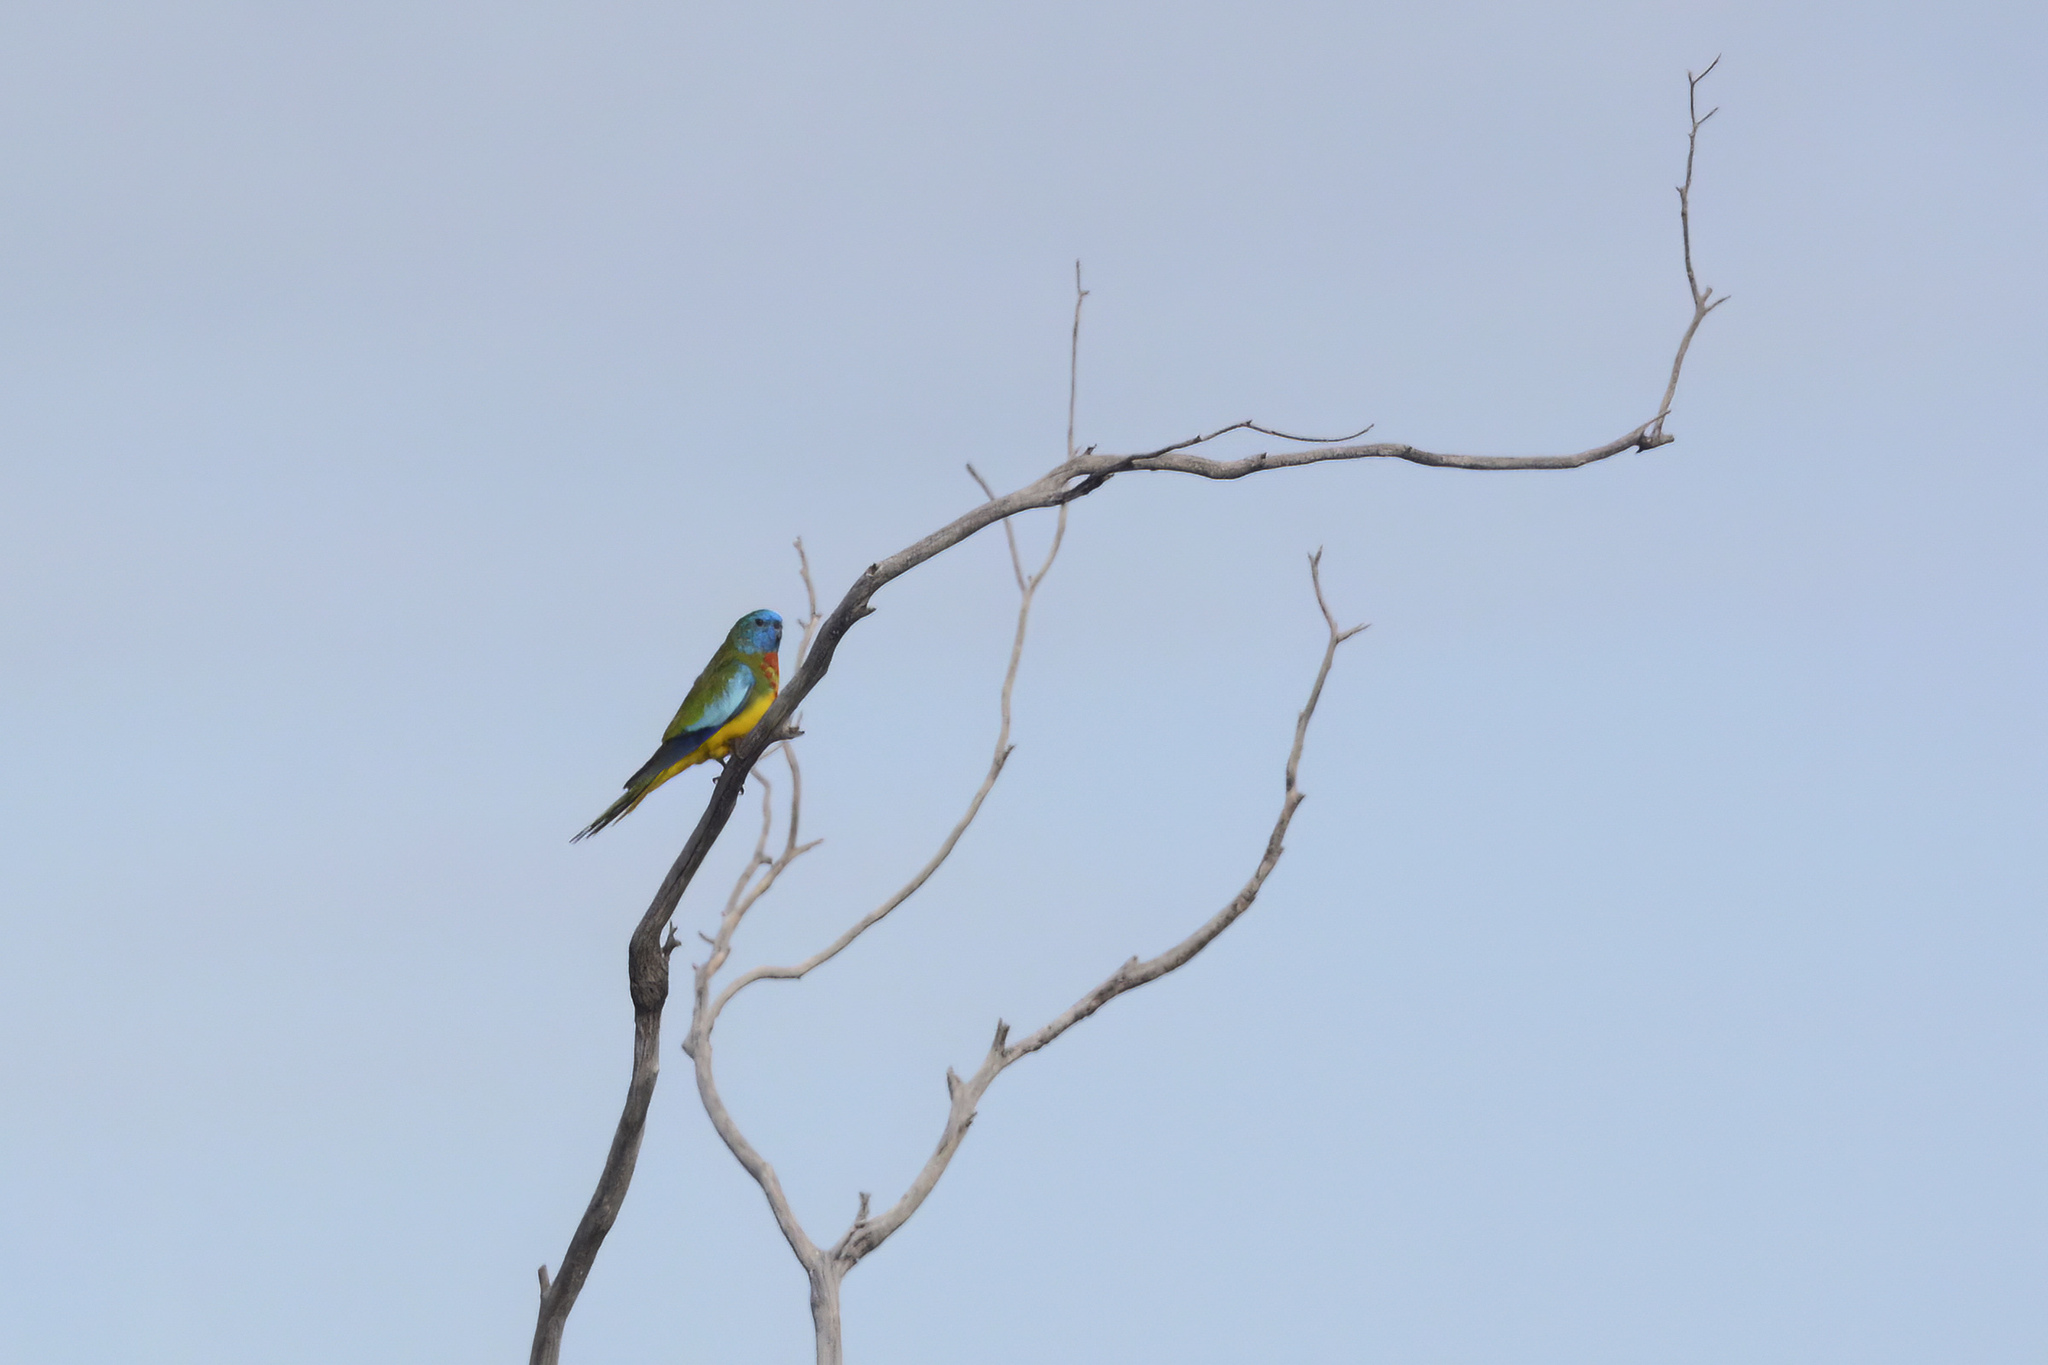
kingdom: Animalia
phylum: Chordata
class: Aves
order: Psittaciformes
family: Psittacidae
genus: Neophema
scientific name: Neophema splendida
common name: Scarlet-chested parrot
